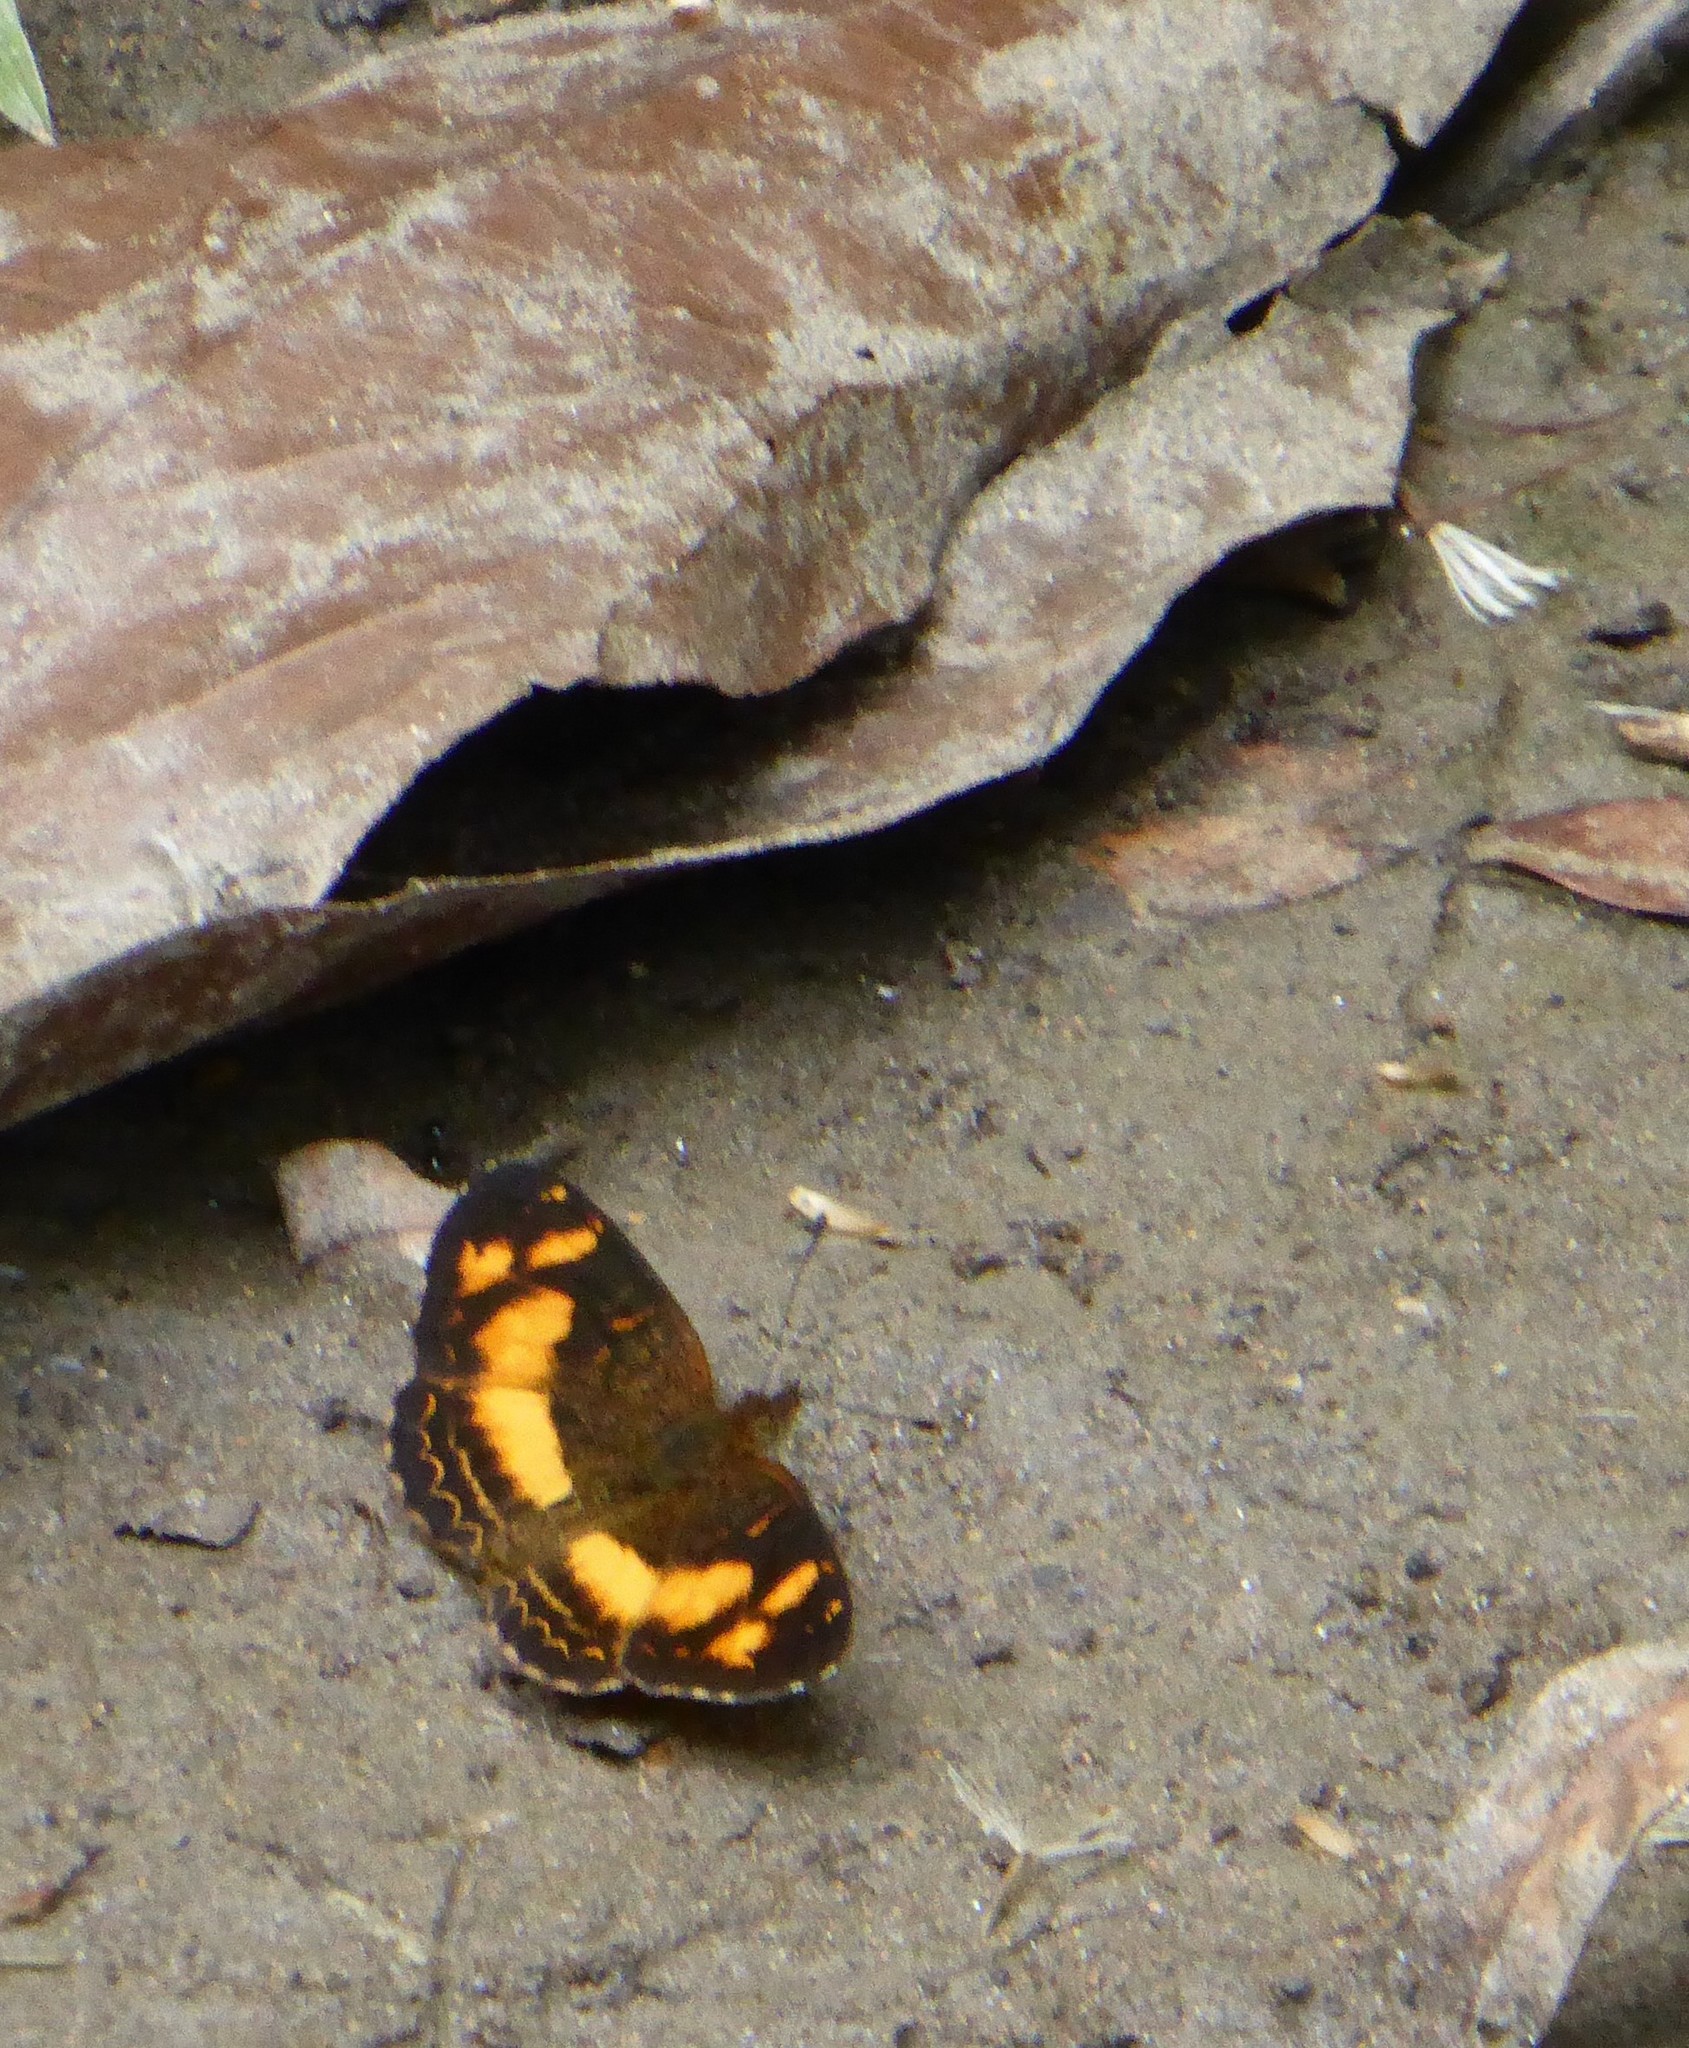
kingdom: Animalia
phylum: Arthropoda
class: Insecta
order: Lepidoptera
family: Nymphalidae
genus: Telenassa
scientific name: Telenassa teletusa
